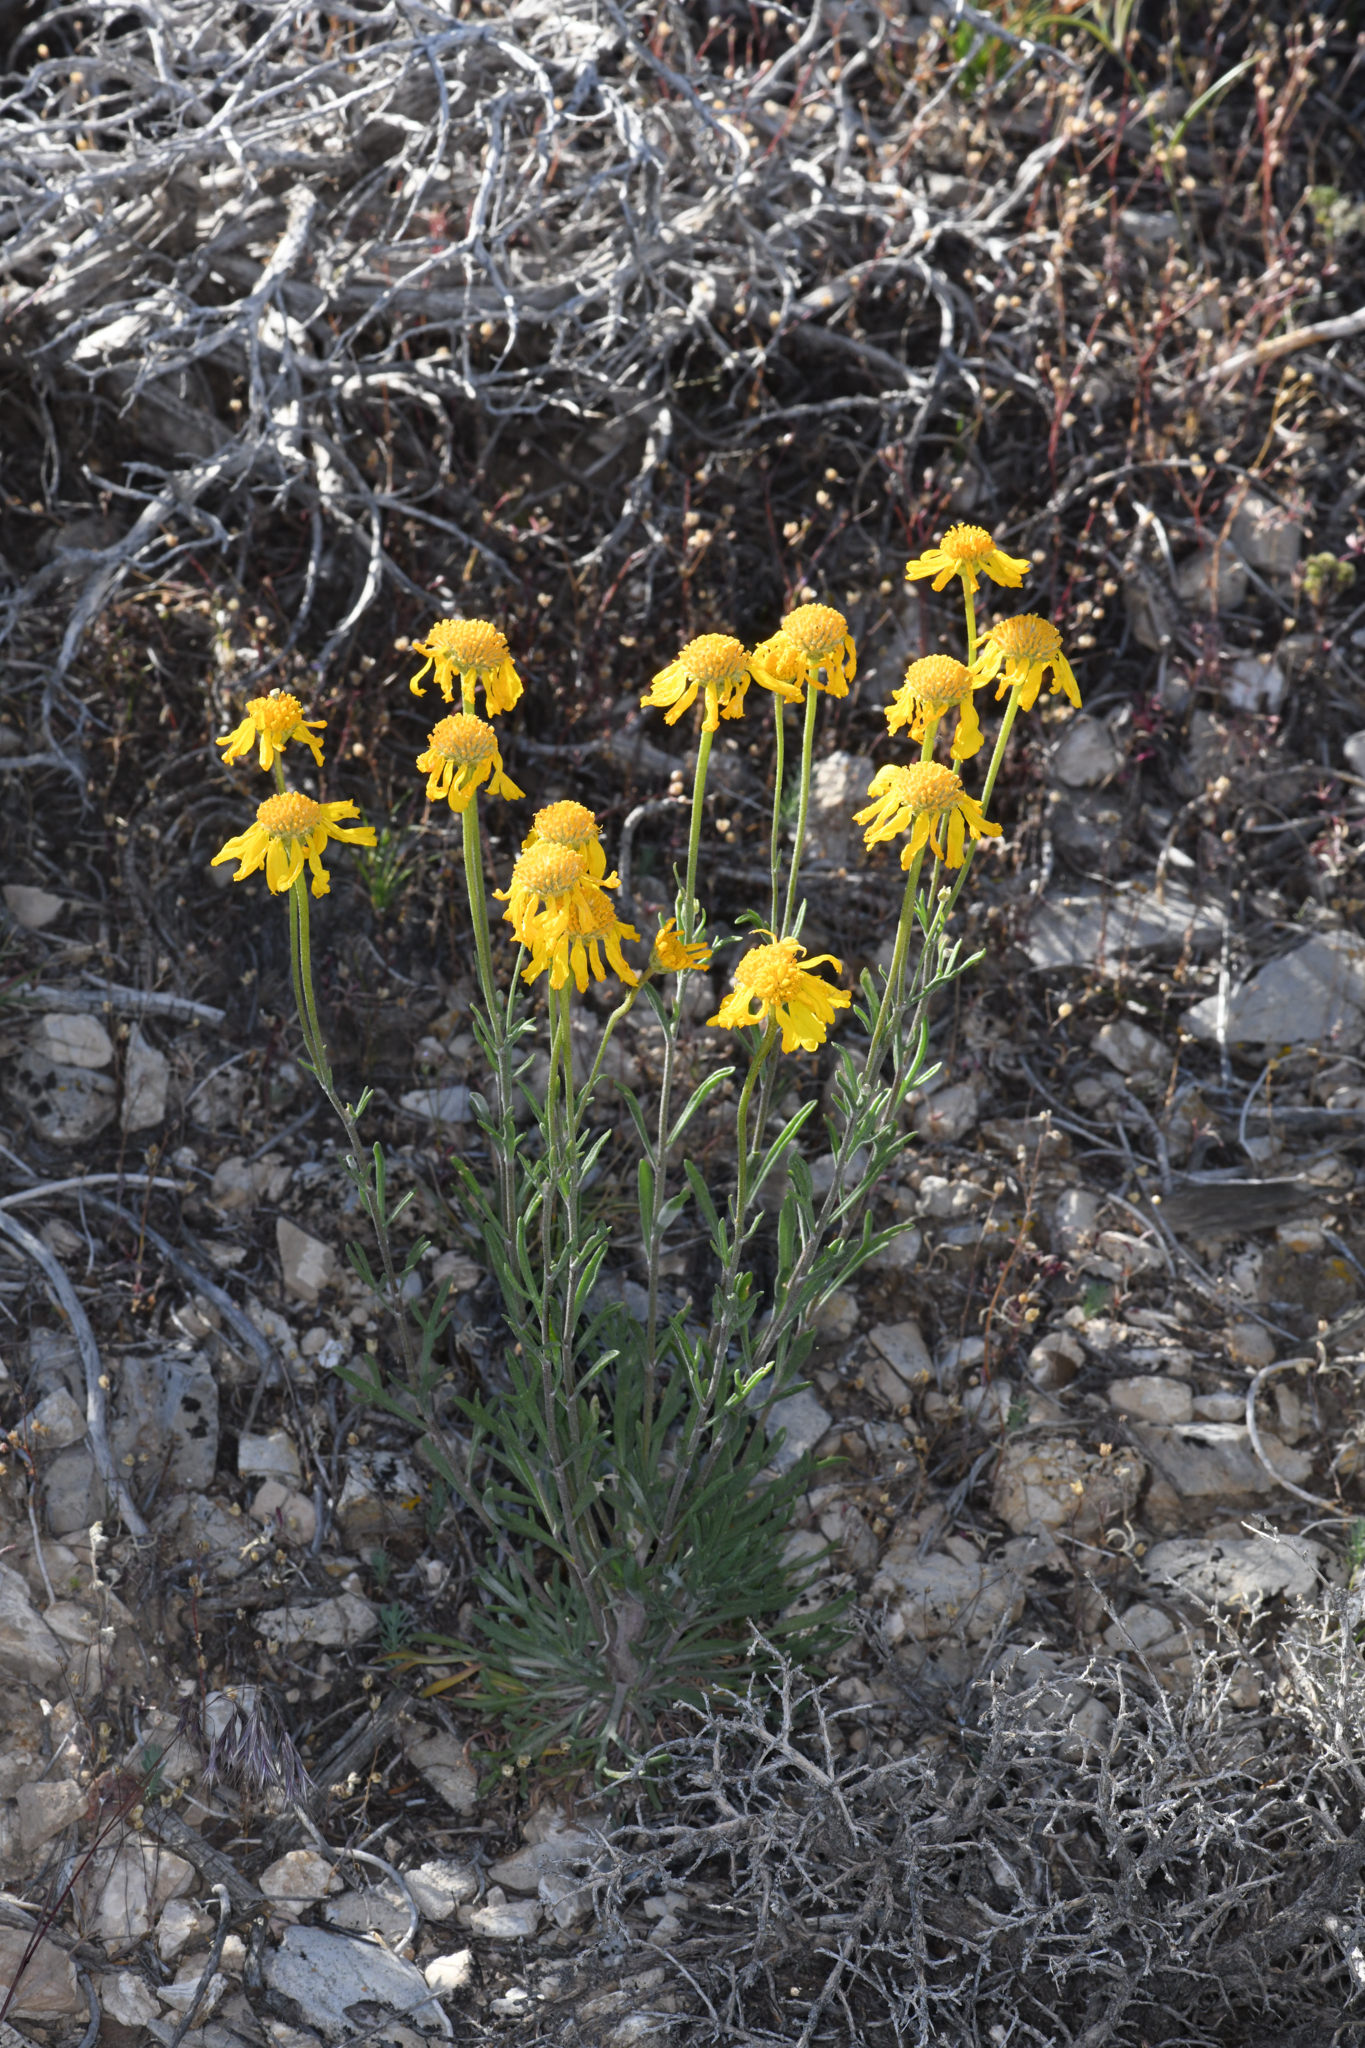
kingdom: Plantae
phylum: Tracheophyta
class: Magnoliopsida
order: Asterales
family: Asteraceae
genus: Hymenoxys
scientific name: Hymenoxys cooperi
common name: Cooper's bitterweed
